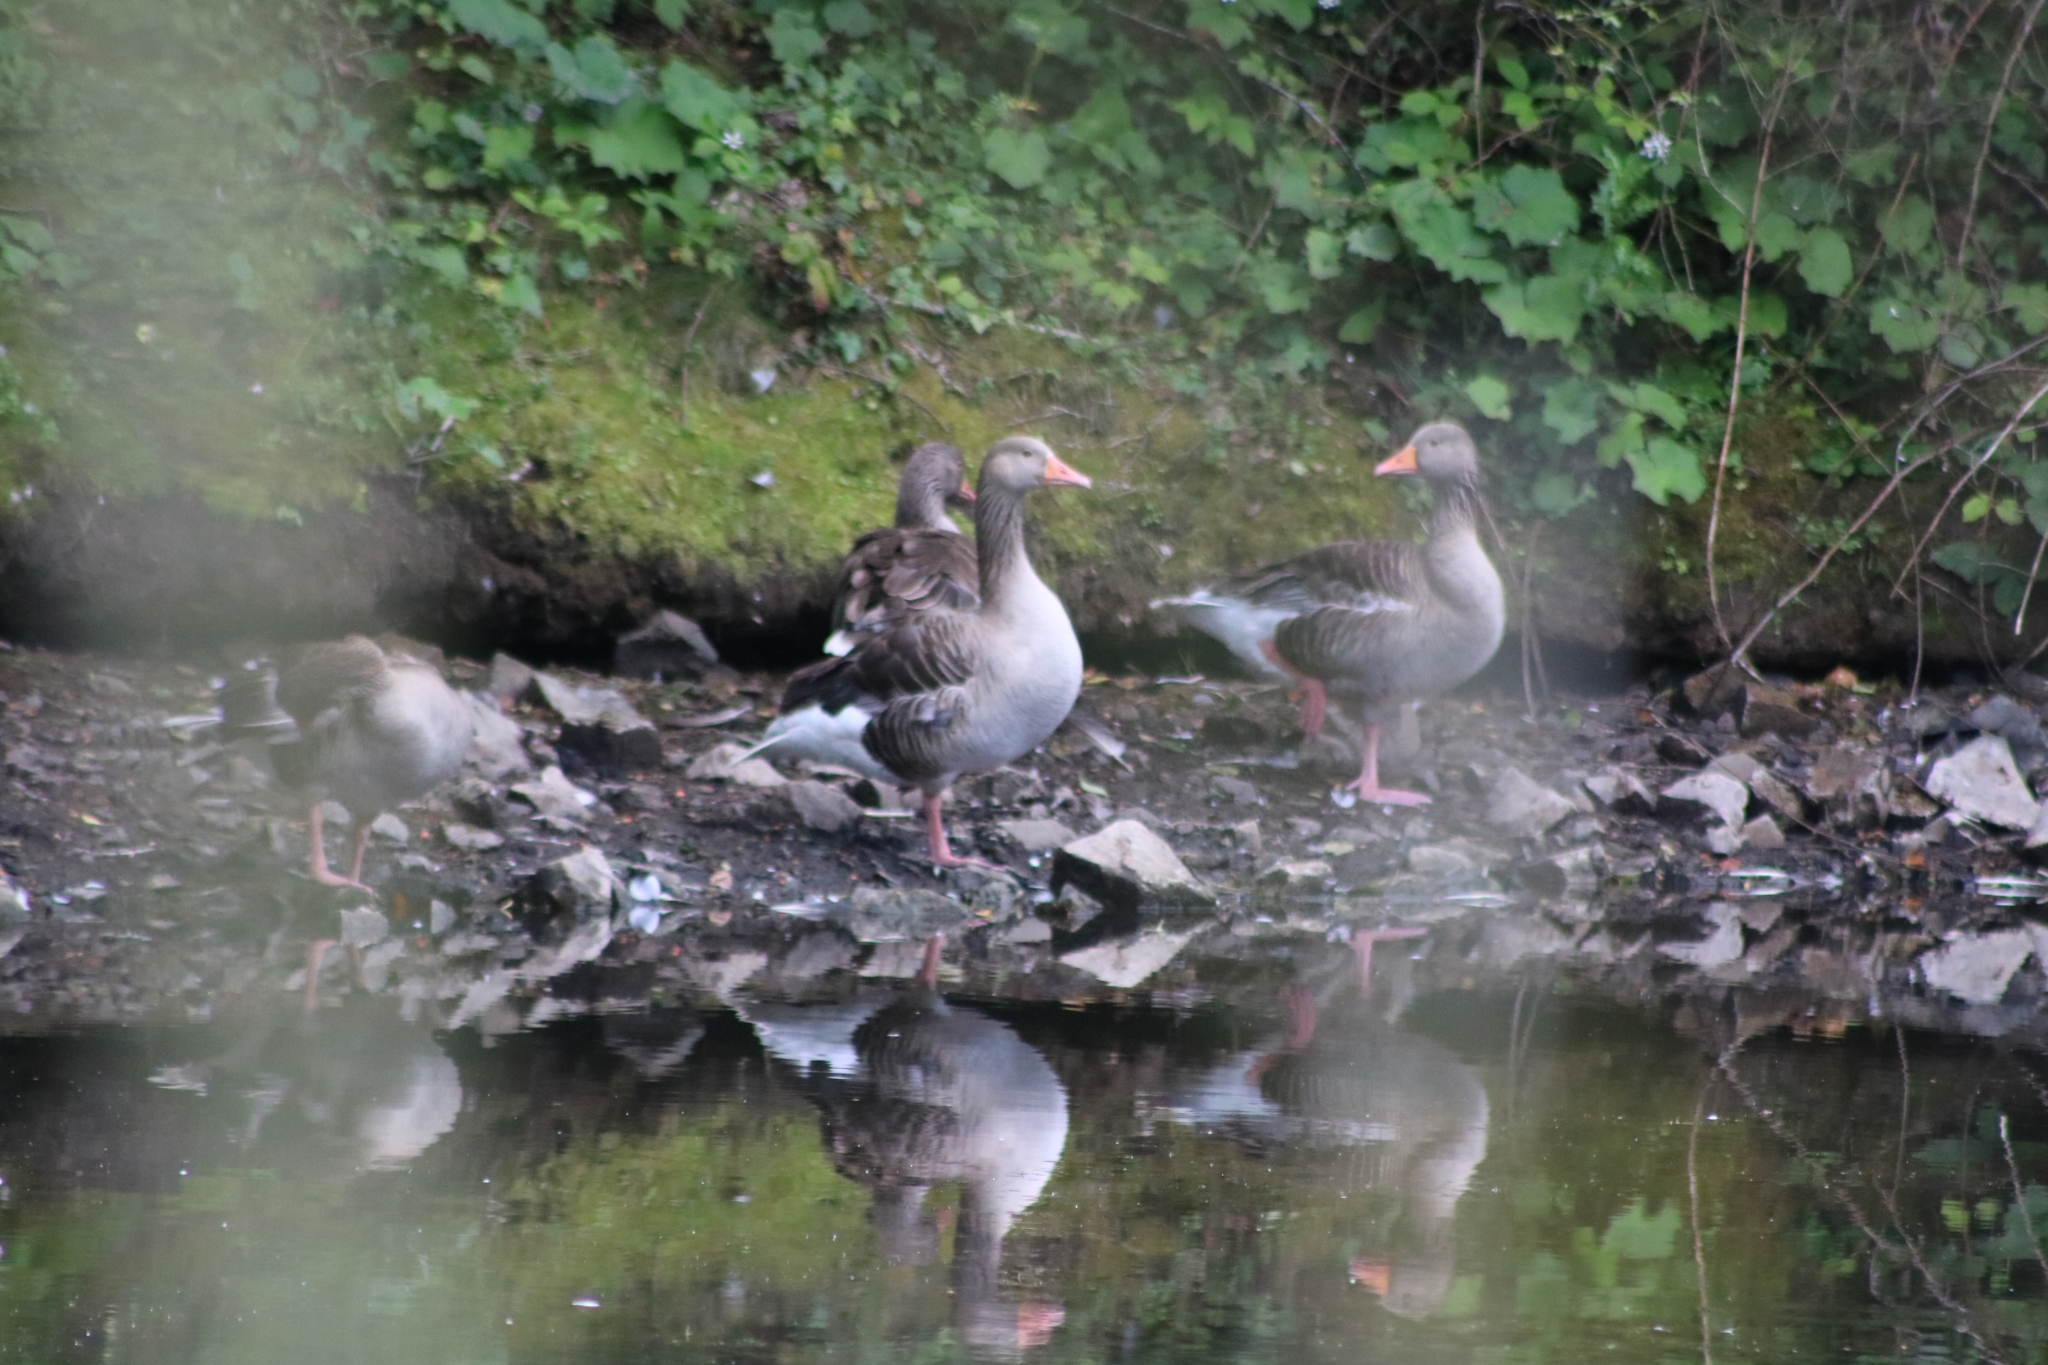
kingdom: Animalia
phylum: Chordata
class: Aves
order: Anseriformes
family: Anatidae
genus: Anser
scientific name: Anser anser
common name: Greylag goose
